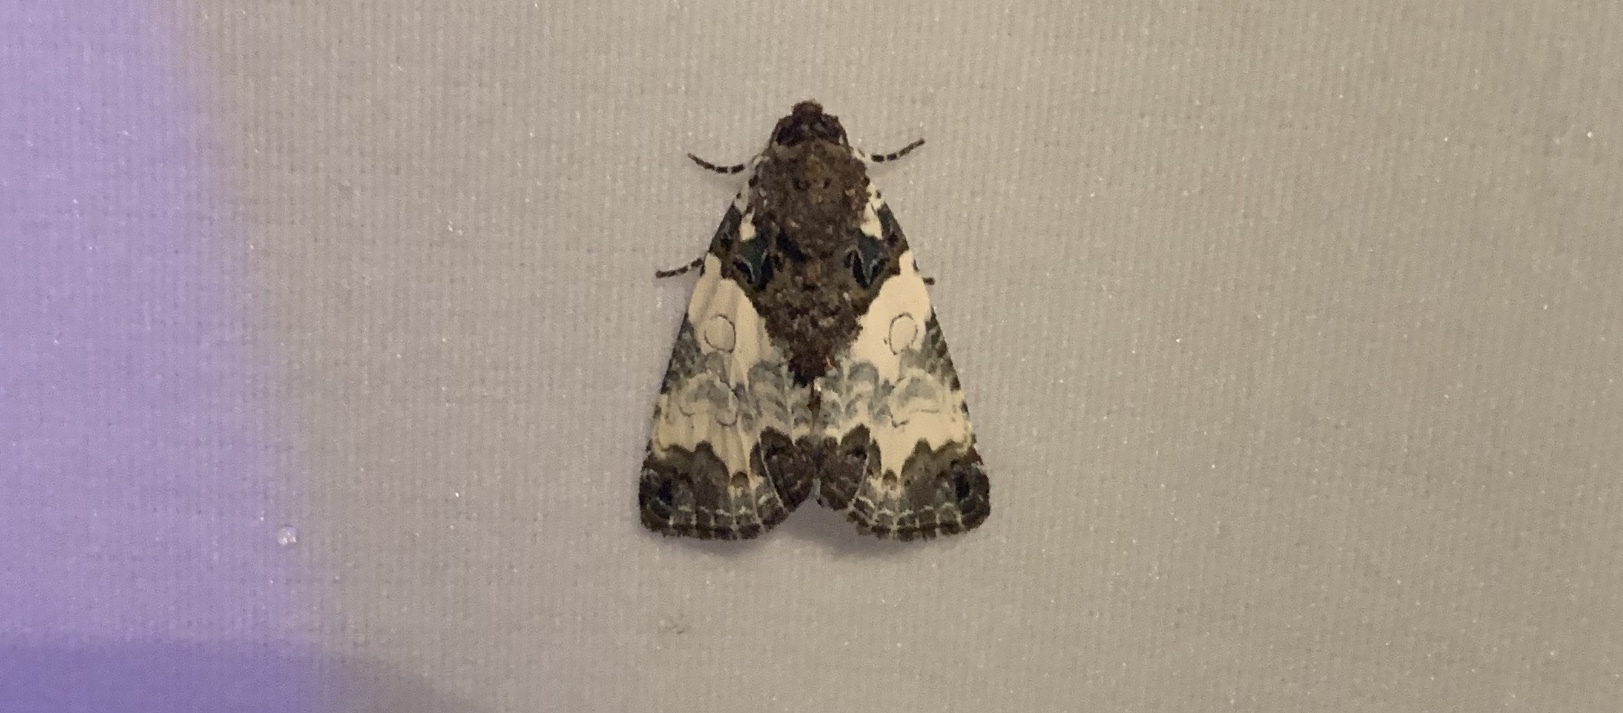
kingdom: Animalia
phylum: Arthropoda
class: Insecta
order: Lepidoptera
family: Noctuidae
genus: Cerma
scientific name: Cerma cerintha
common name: Tufted bird-dropping moth
